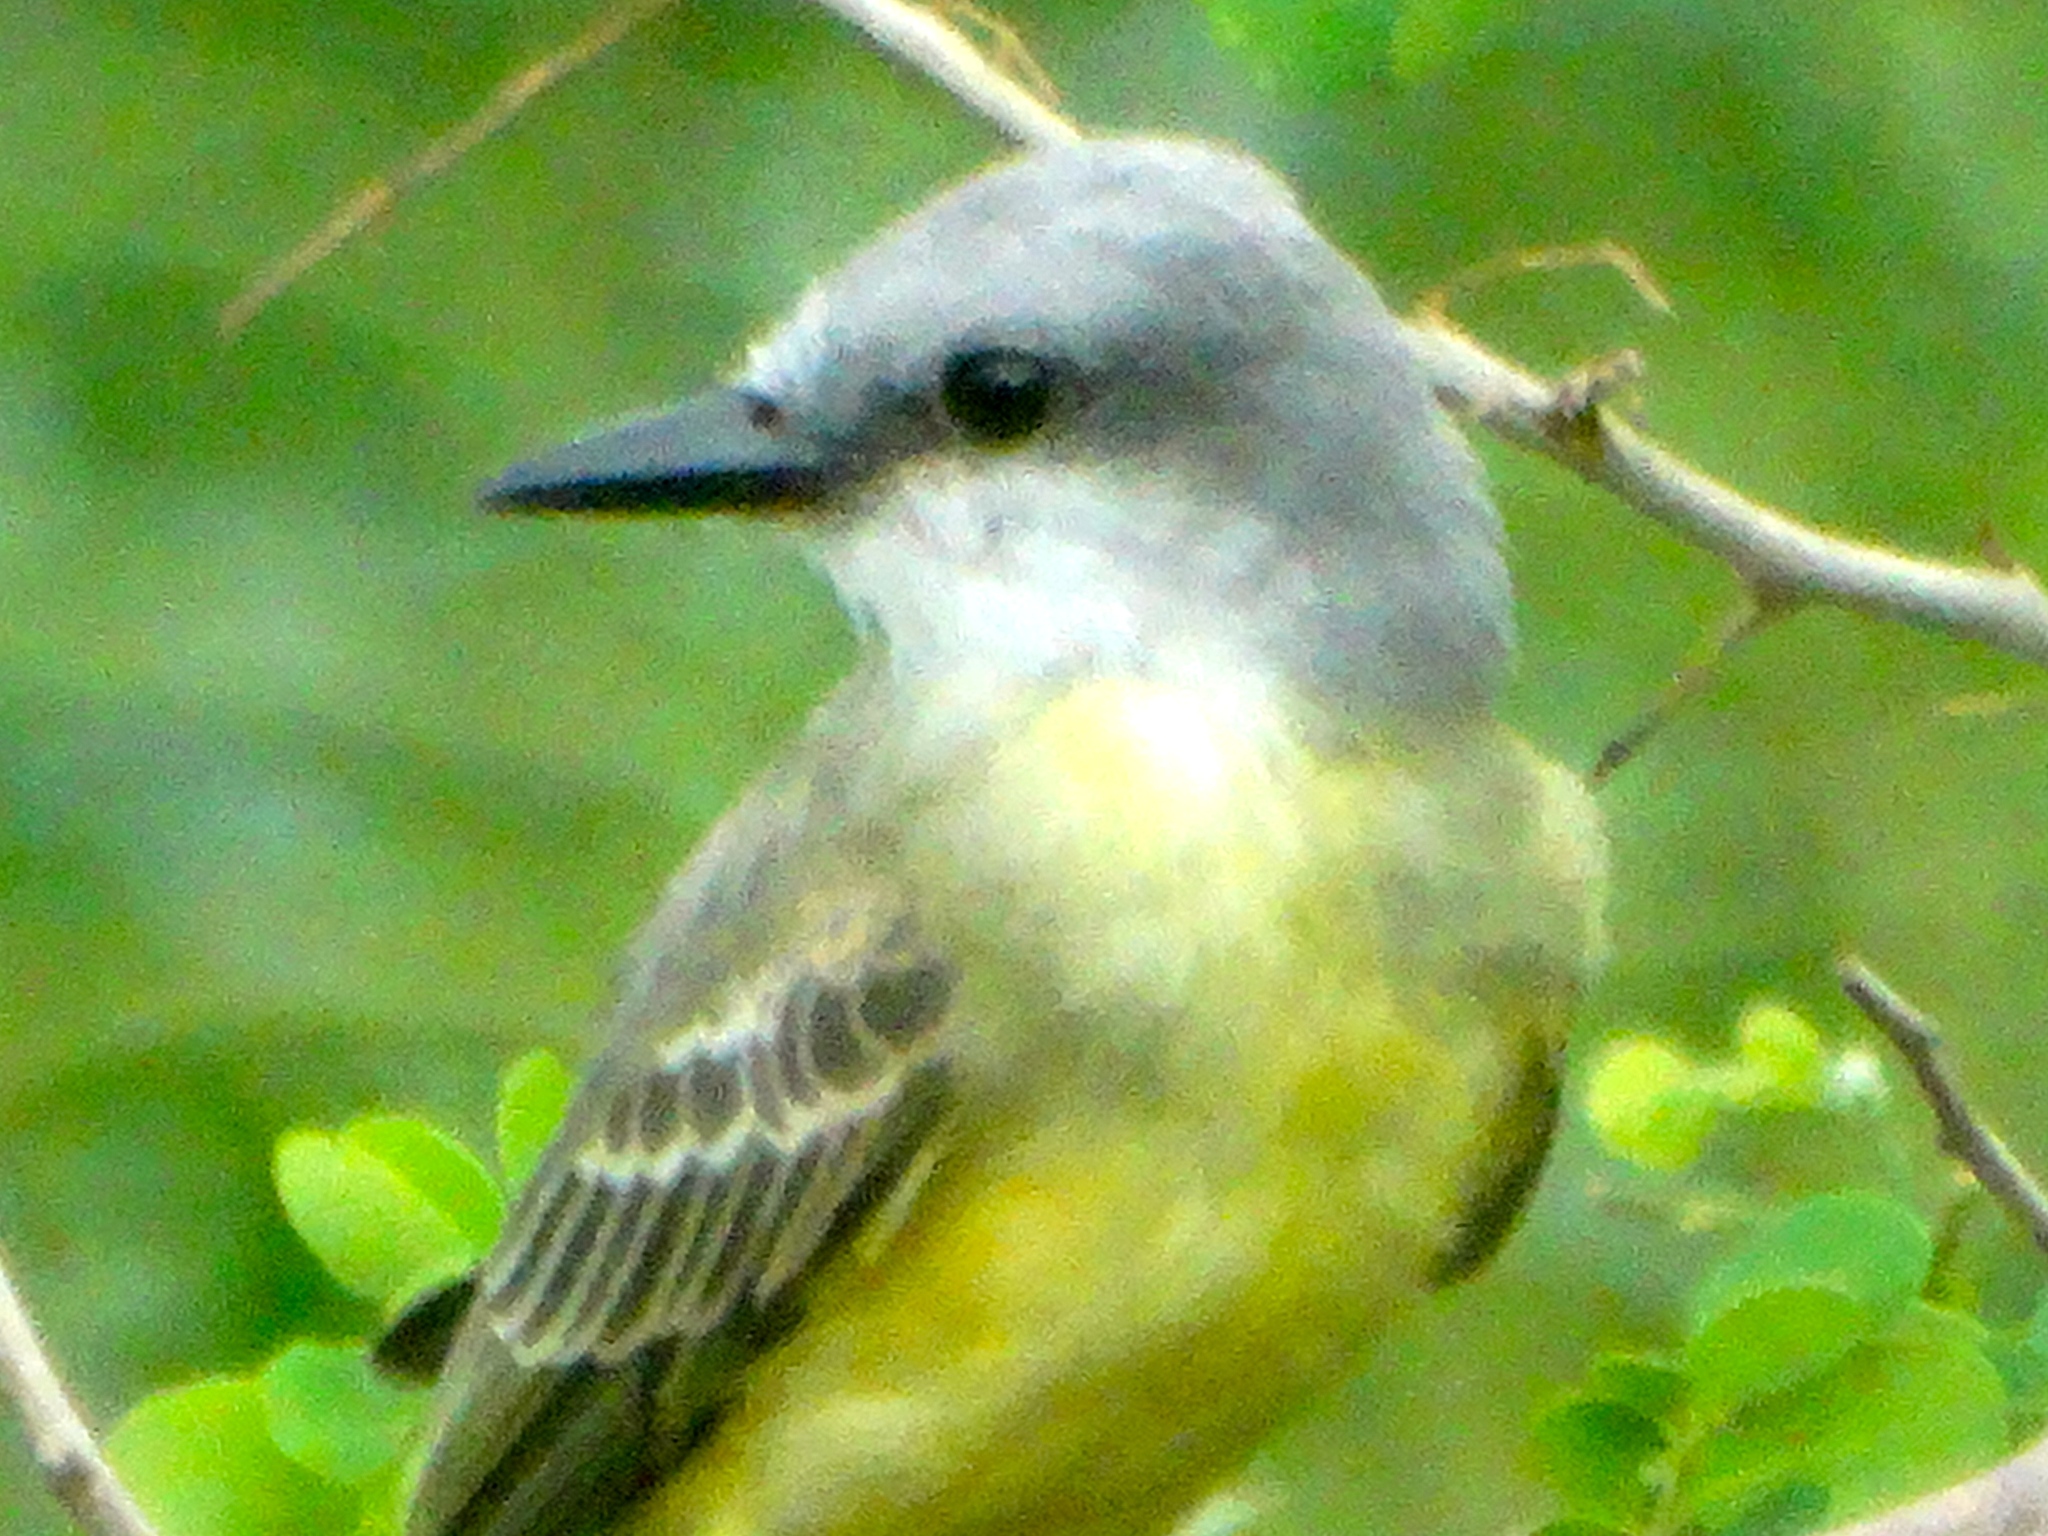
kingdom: Animalia
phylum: Chordata
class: Aves
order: Passeriformes
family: Tyrannidae
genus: Tyrannus
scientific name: Tyrannus melancholicus
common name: Tropical kingbird
